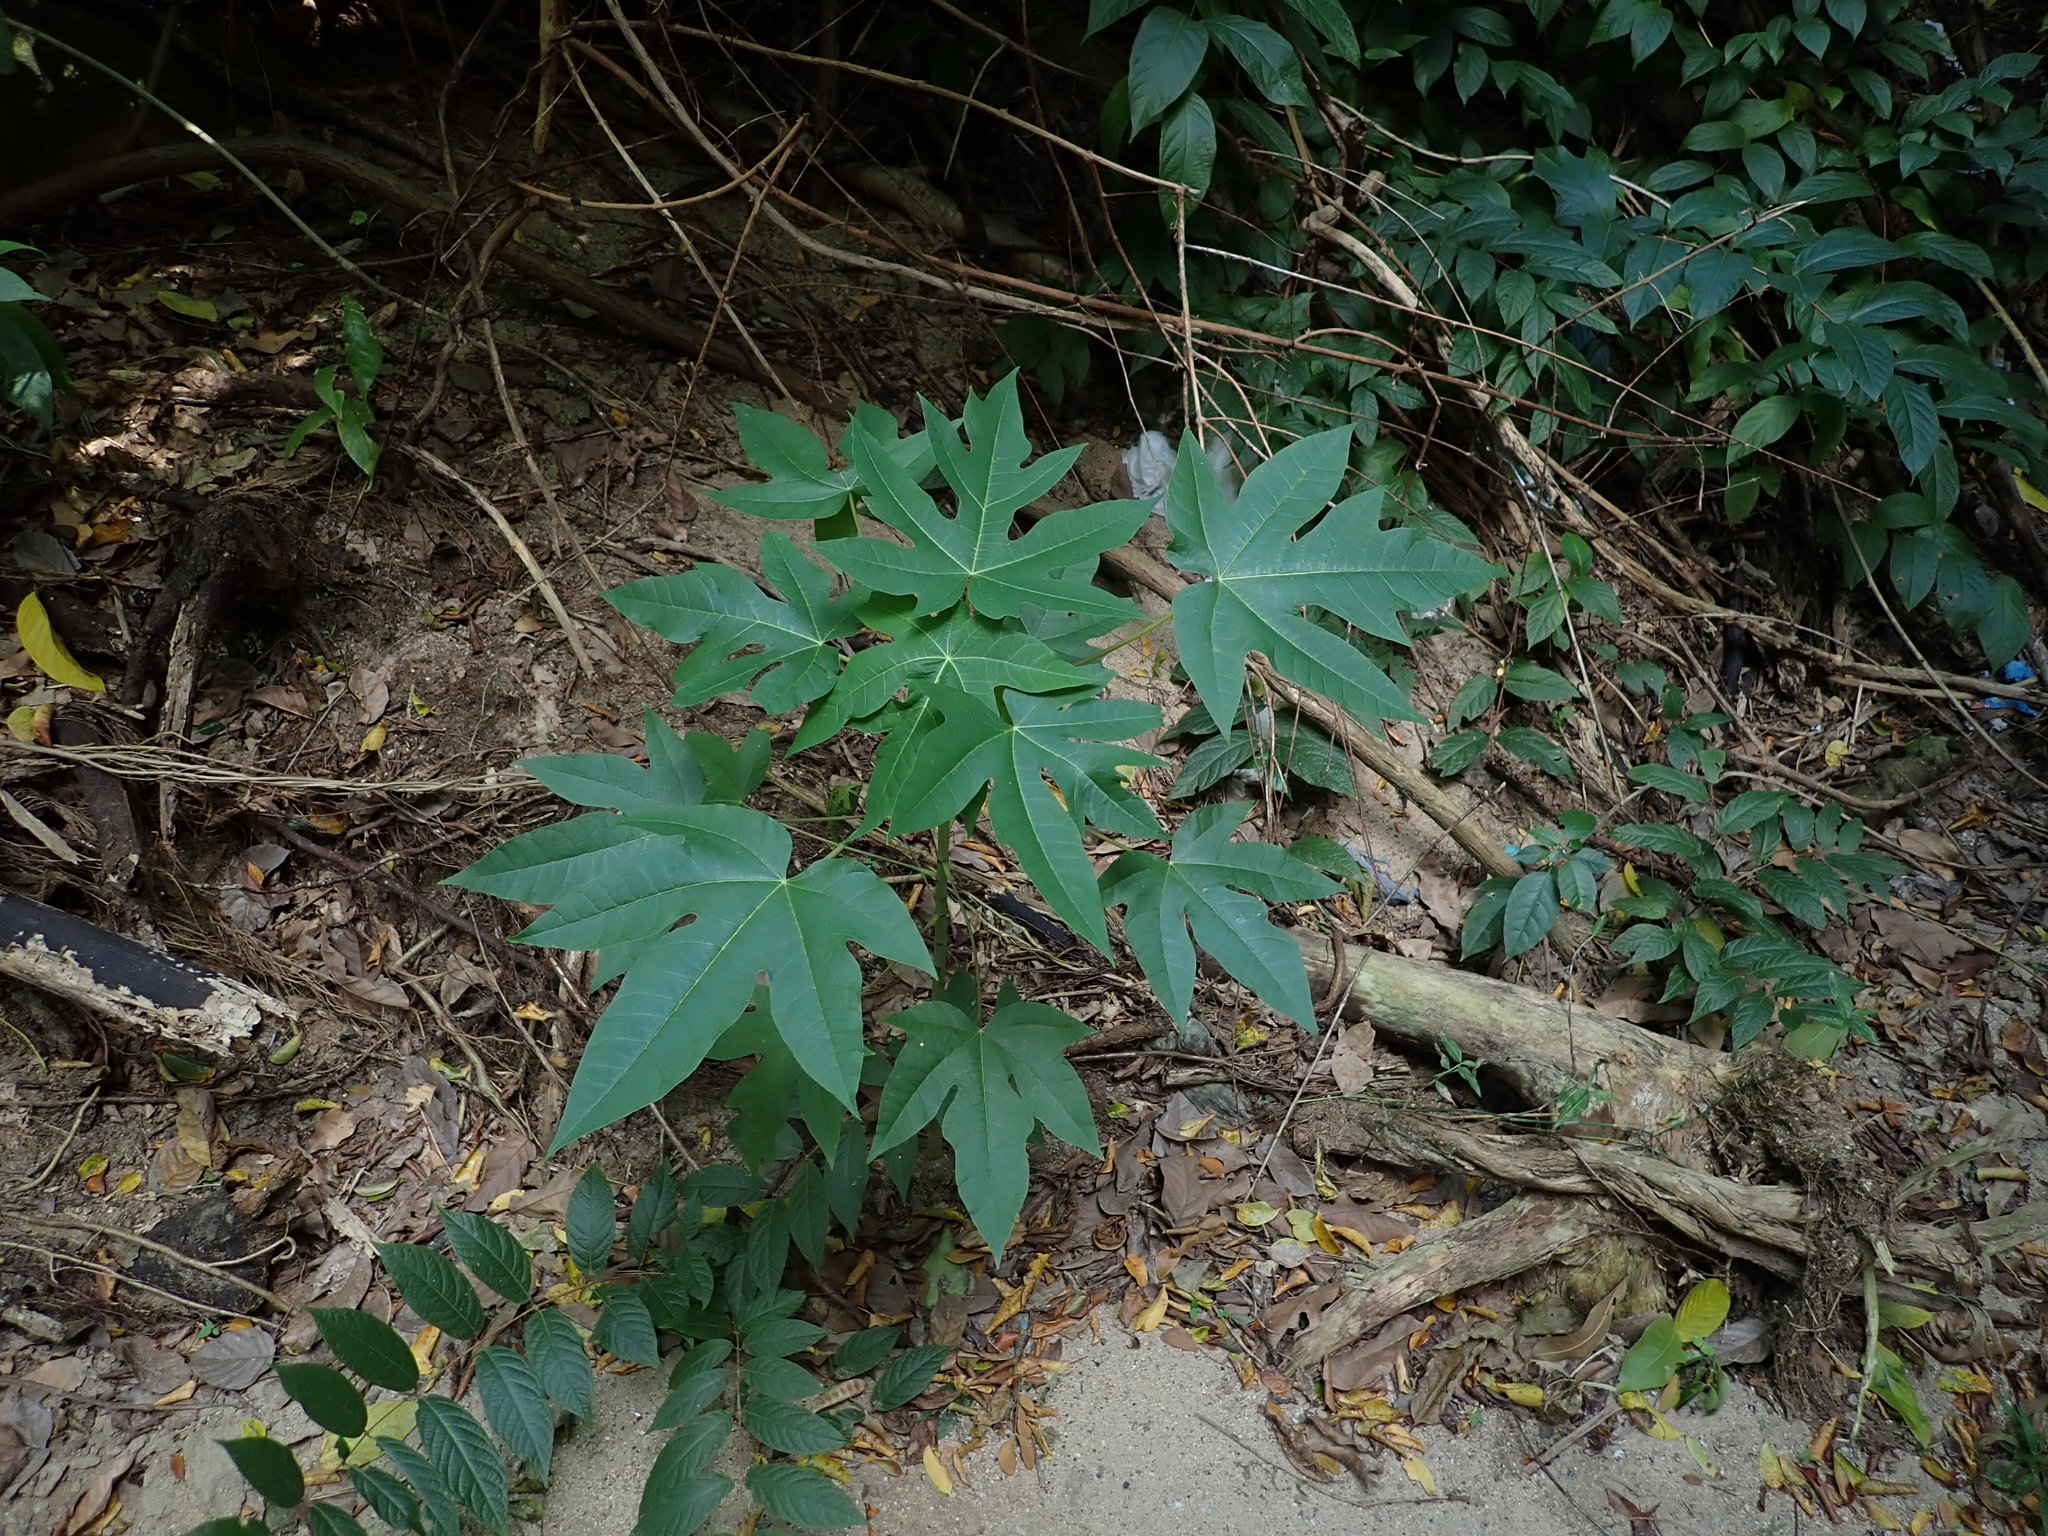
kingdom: Plantae
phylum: Tracheophyta
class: Magnoliopsida
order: Brassicales
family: Caricaceae
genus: Carica
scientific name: Carica papaya
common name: Papaya
